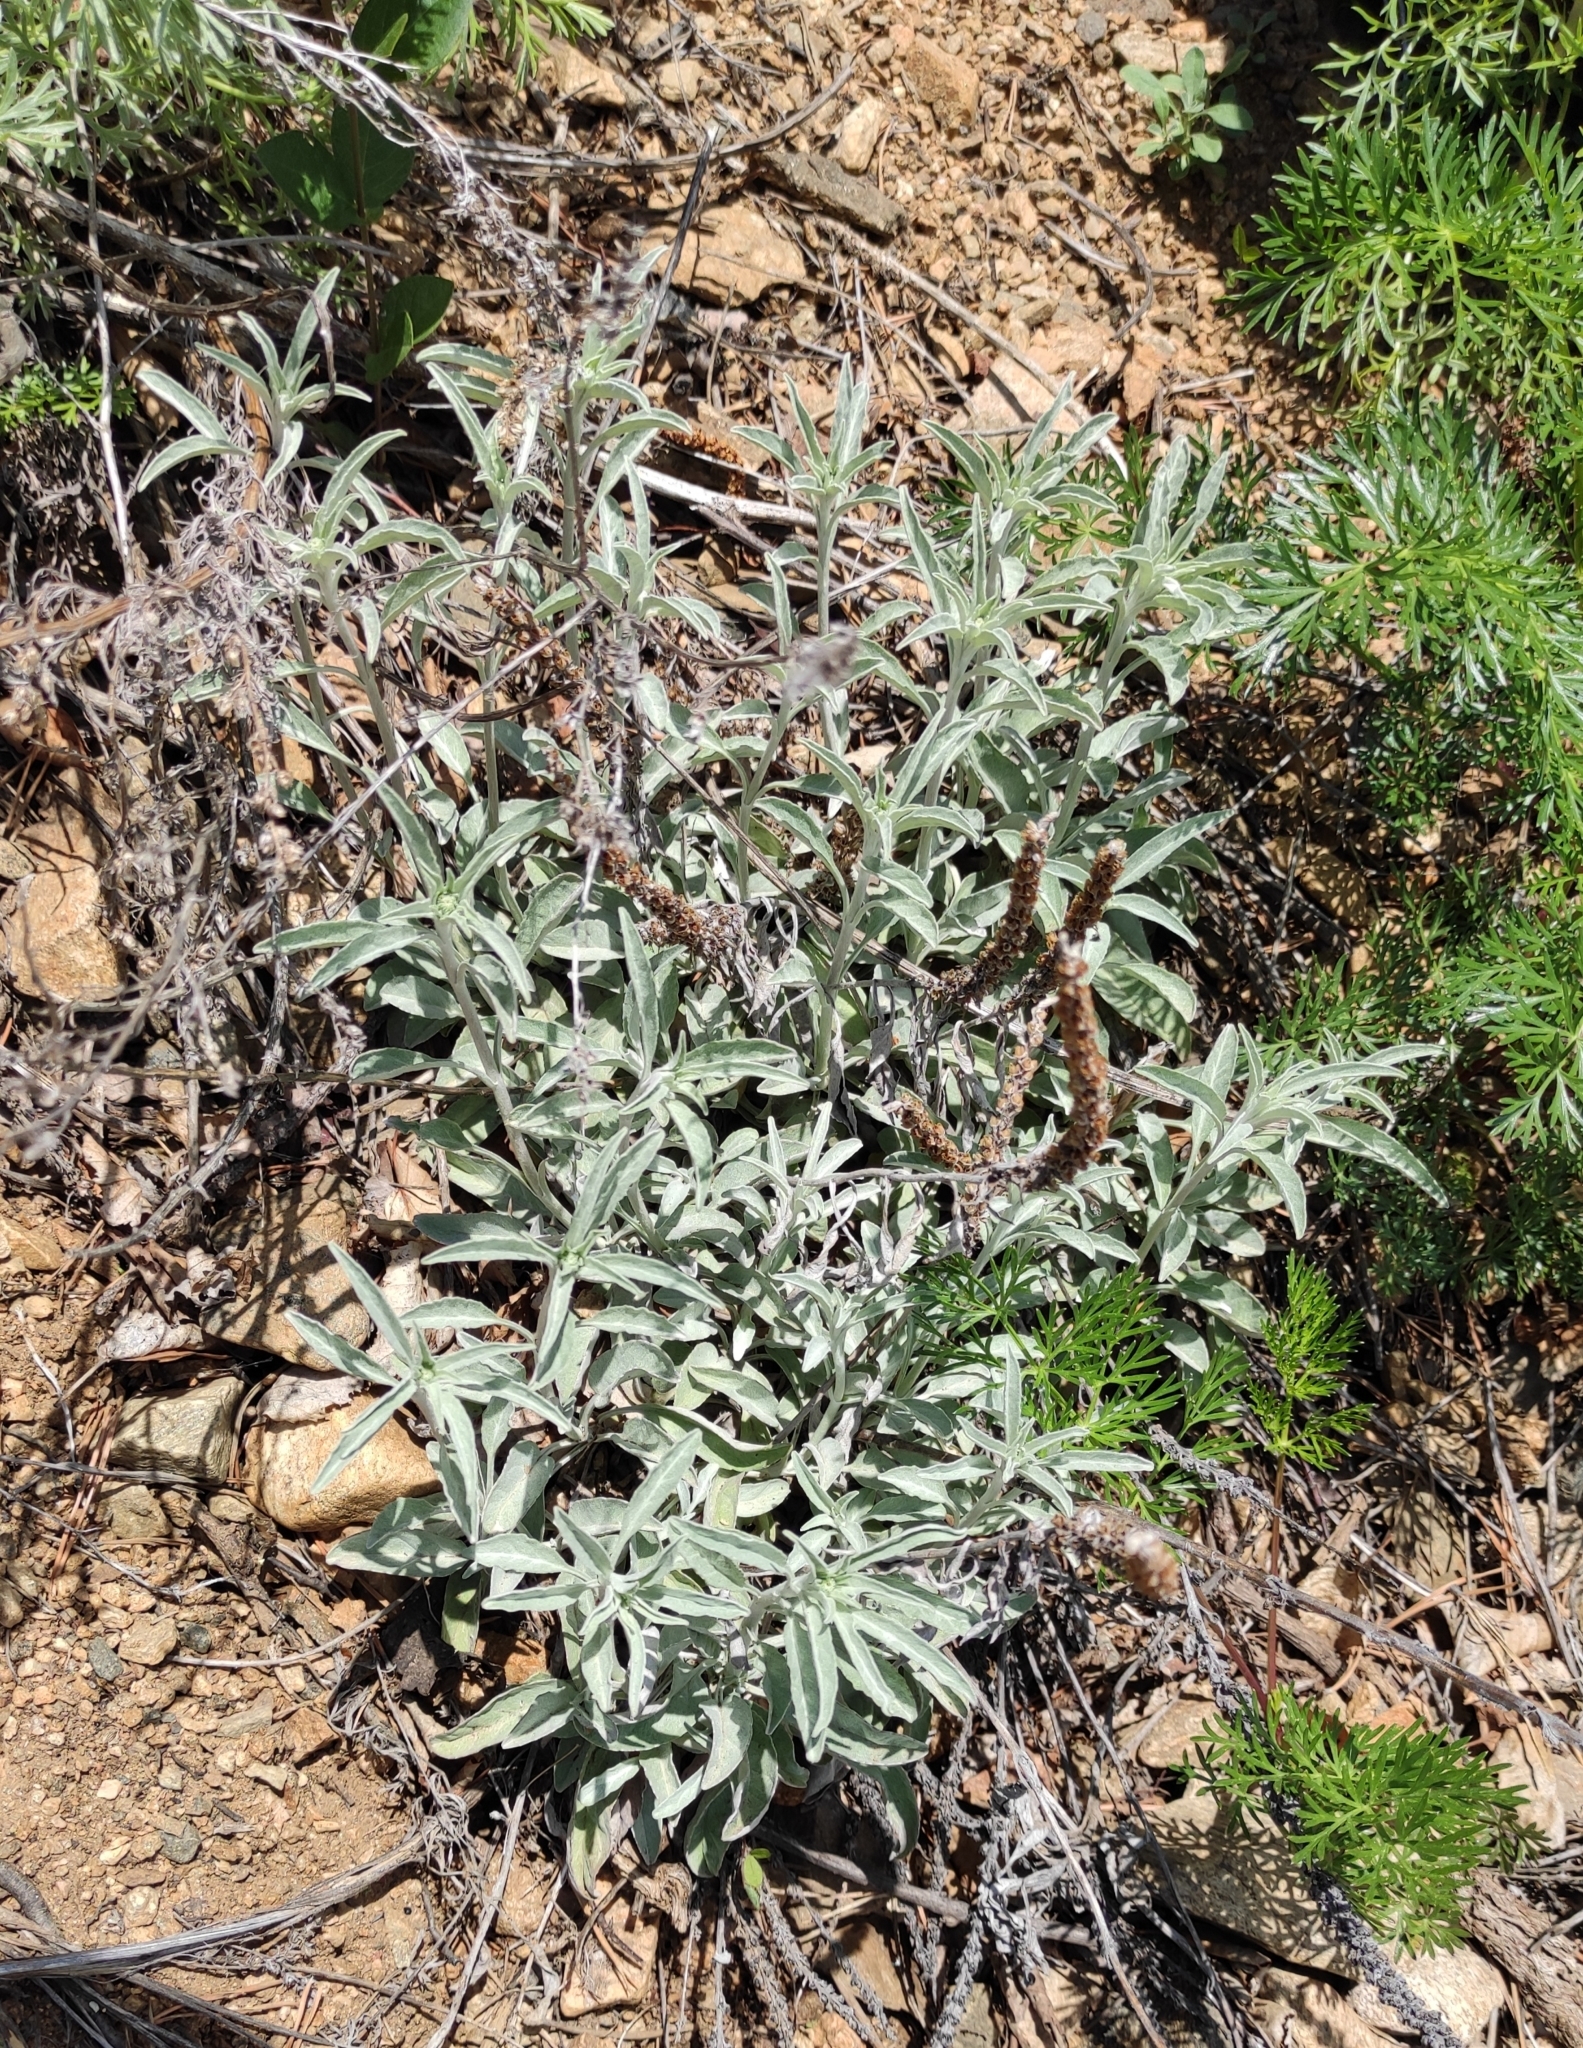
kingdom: Plantae
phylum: Tracheophyta
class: Magnoliopsida
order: Lamiales
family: Plantaginaceae
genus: Veronica
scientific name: Veronica incana
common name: Silver speedwell
